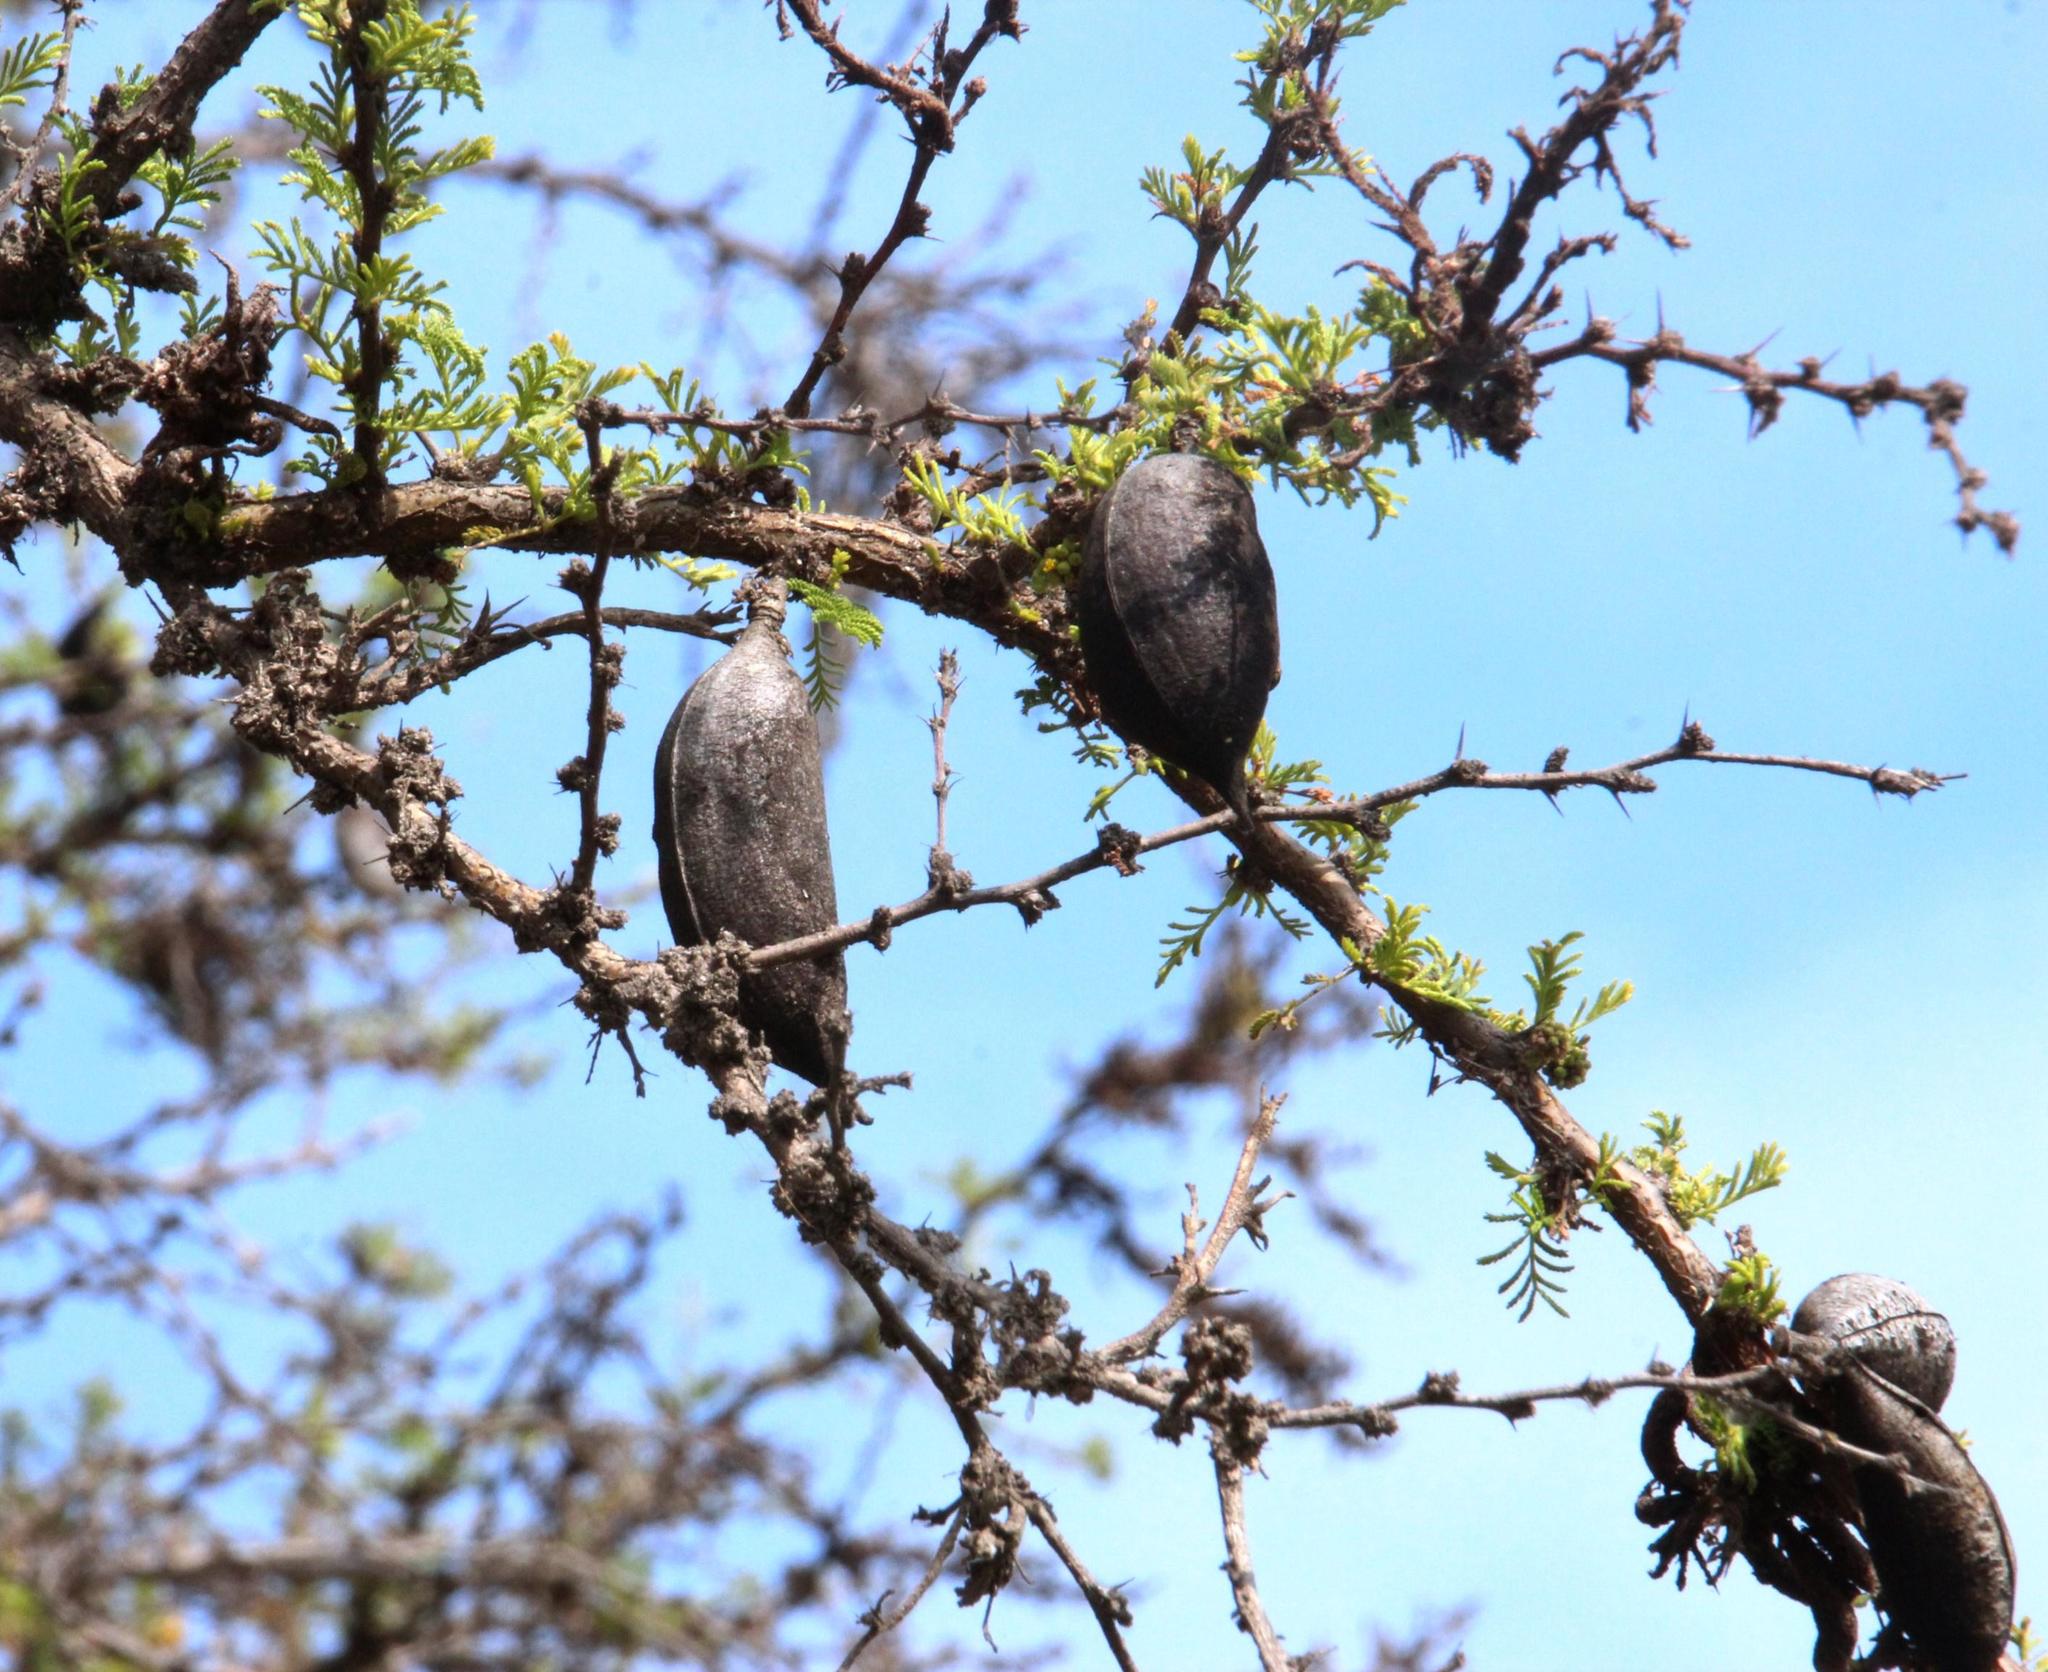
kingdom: Plantae
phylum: Tracheophyta
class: Magnoliopsida
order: Fabales
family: Fabaceae
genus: Vachellia
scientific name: Vachellia caven
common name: Roman cassie
